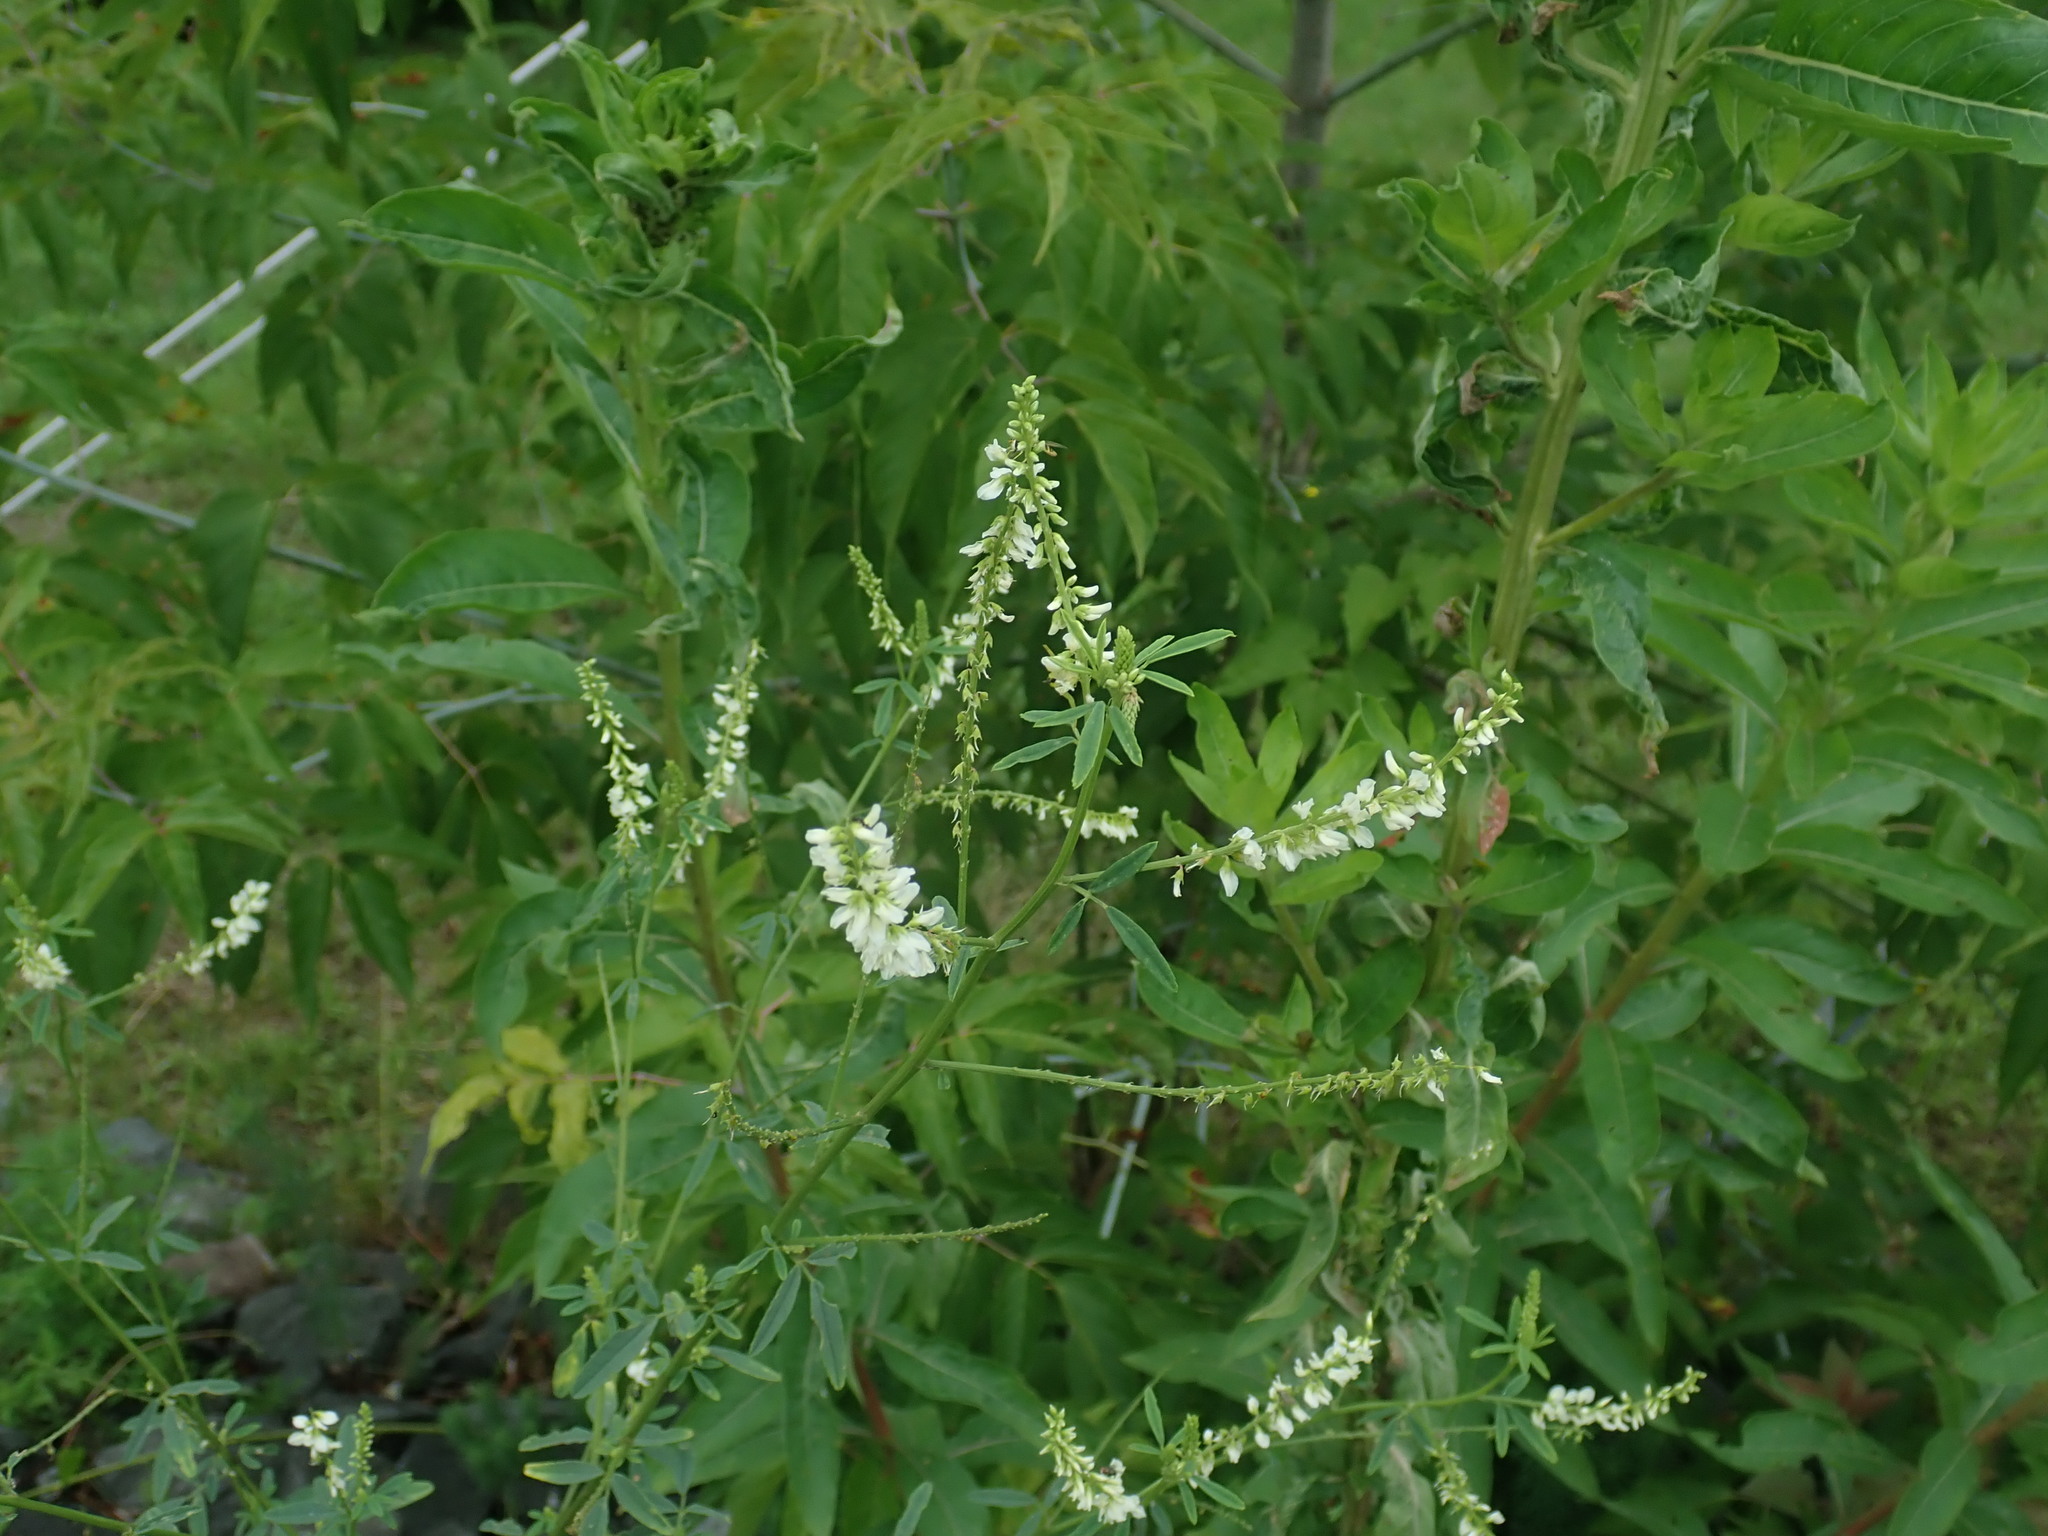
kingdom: Plantae
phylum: Tracheophyta
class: Magnoliopsida
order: Fabales
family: Fabaceae
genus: Melilotus
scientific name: Melilotus albus
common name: White melilot
